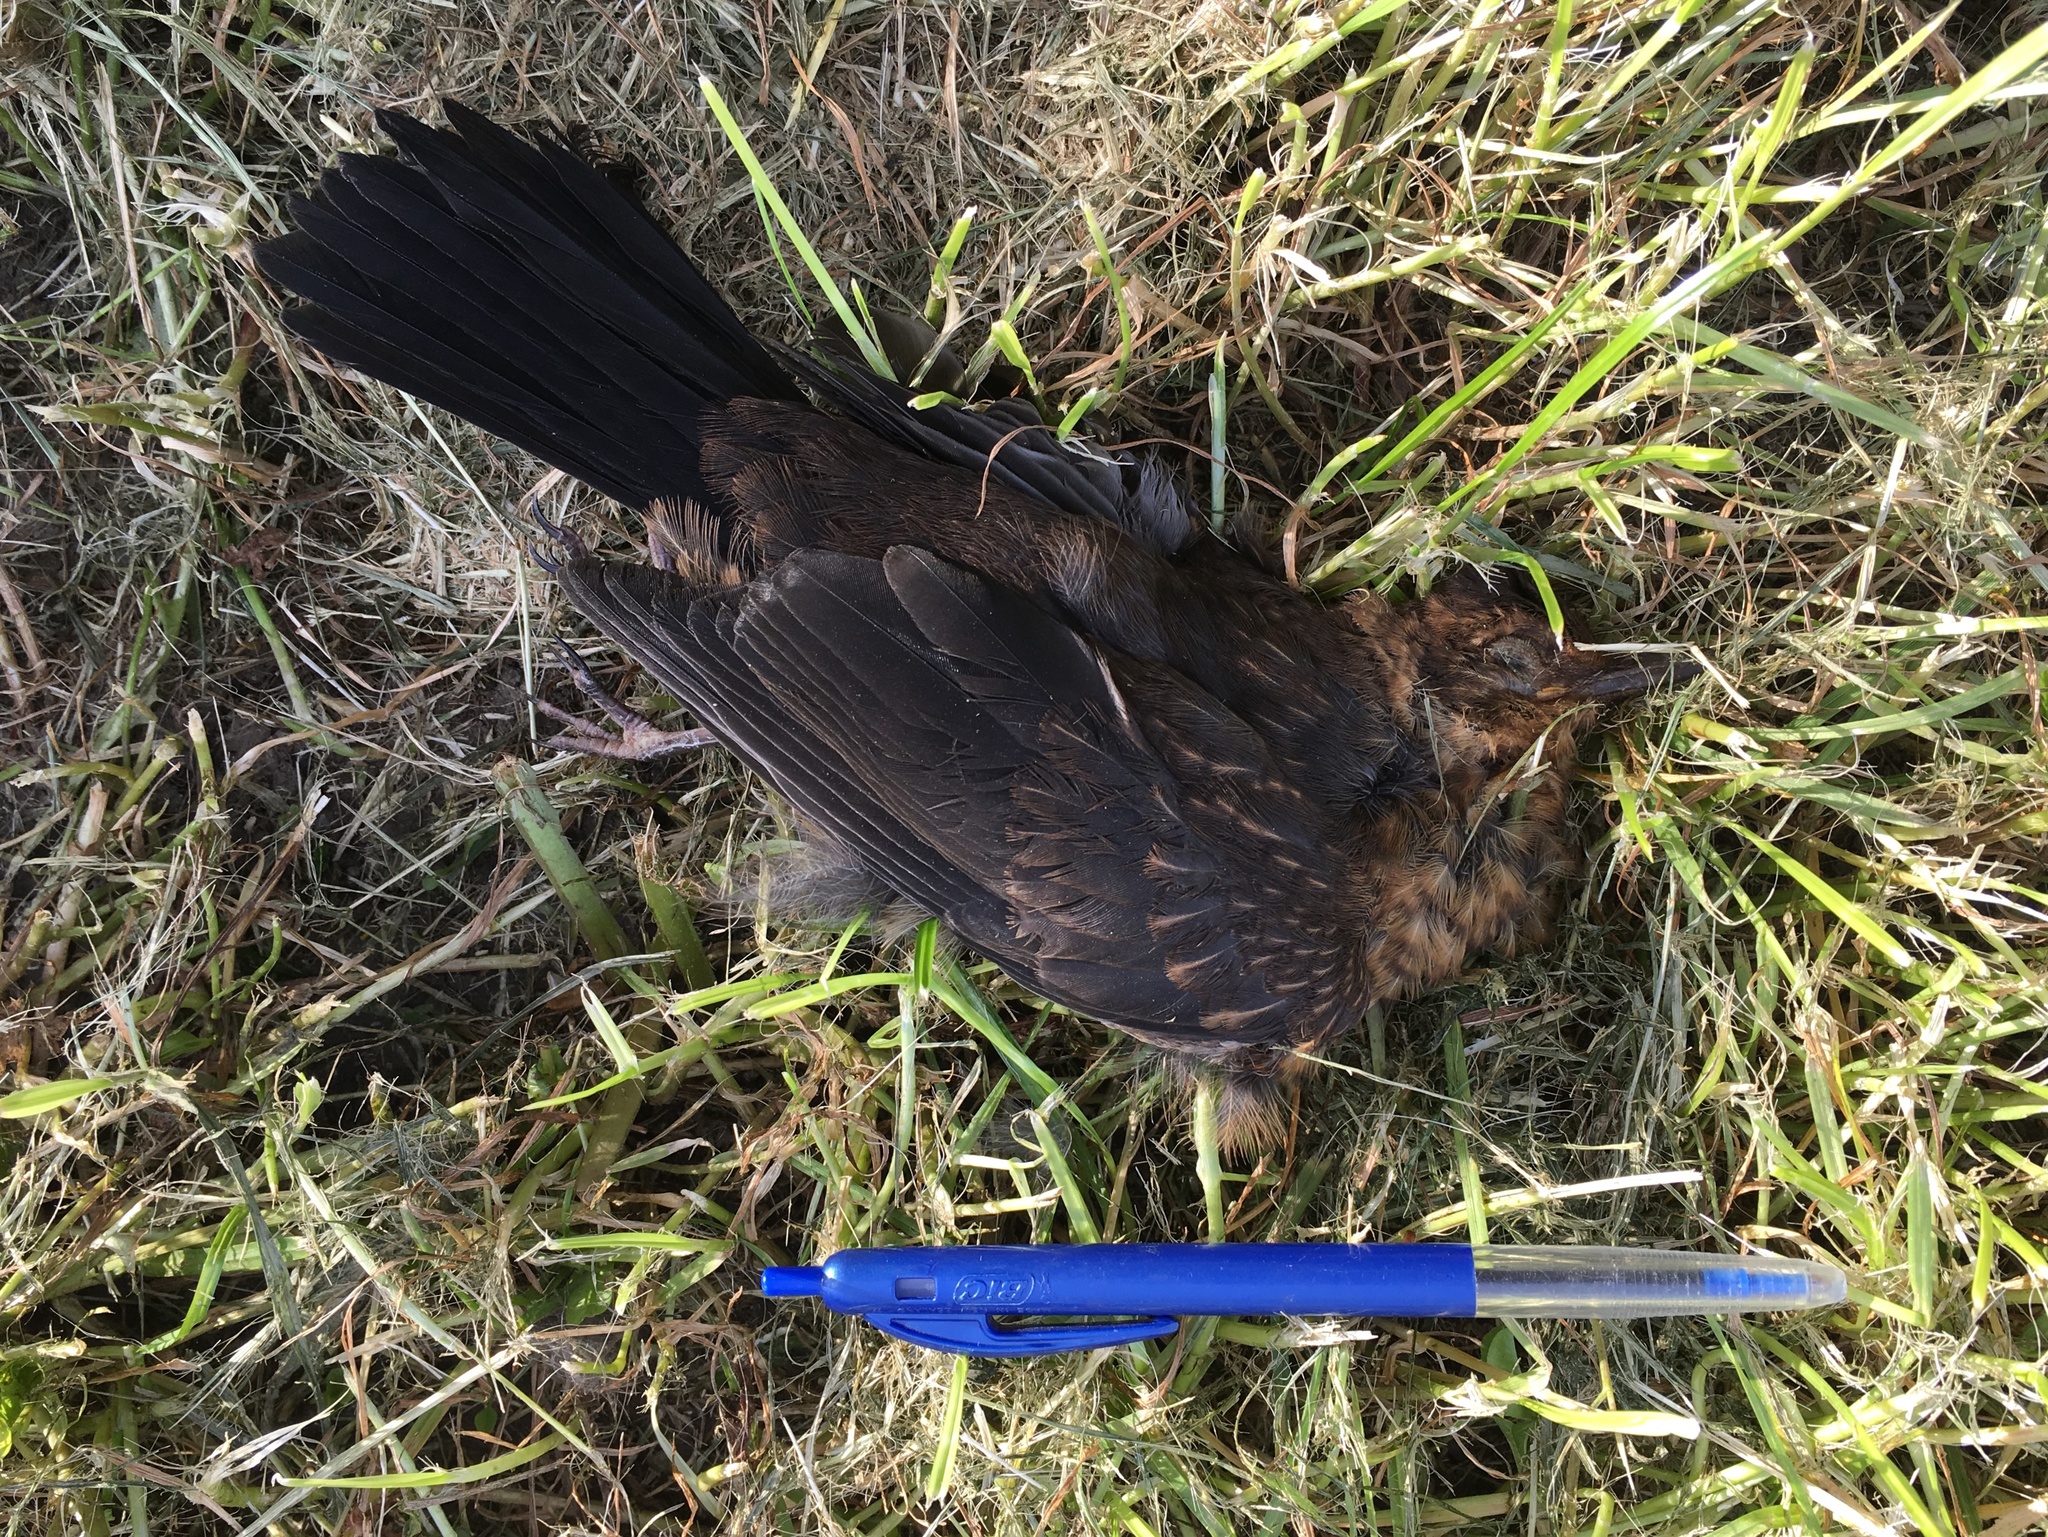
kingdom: Animalia
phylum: Chordata
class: Aves
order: Passeriformes
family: Turdidae
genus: Turdus
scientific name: Turdus merula
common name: Common blackbird
